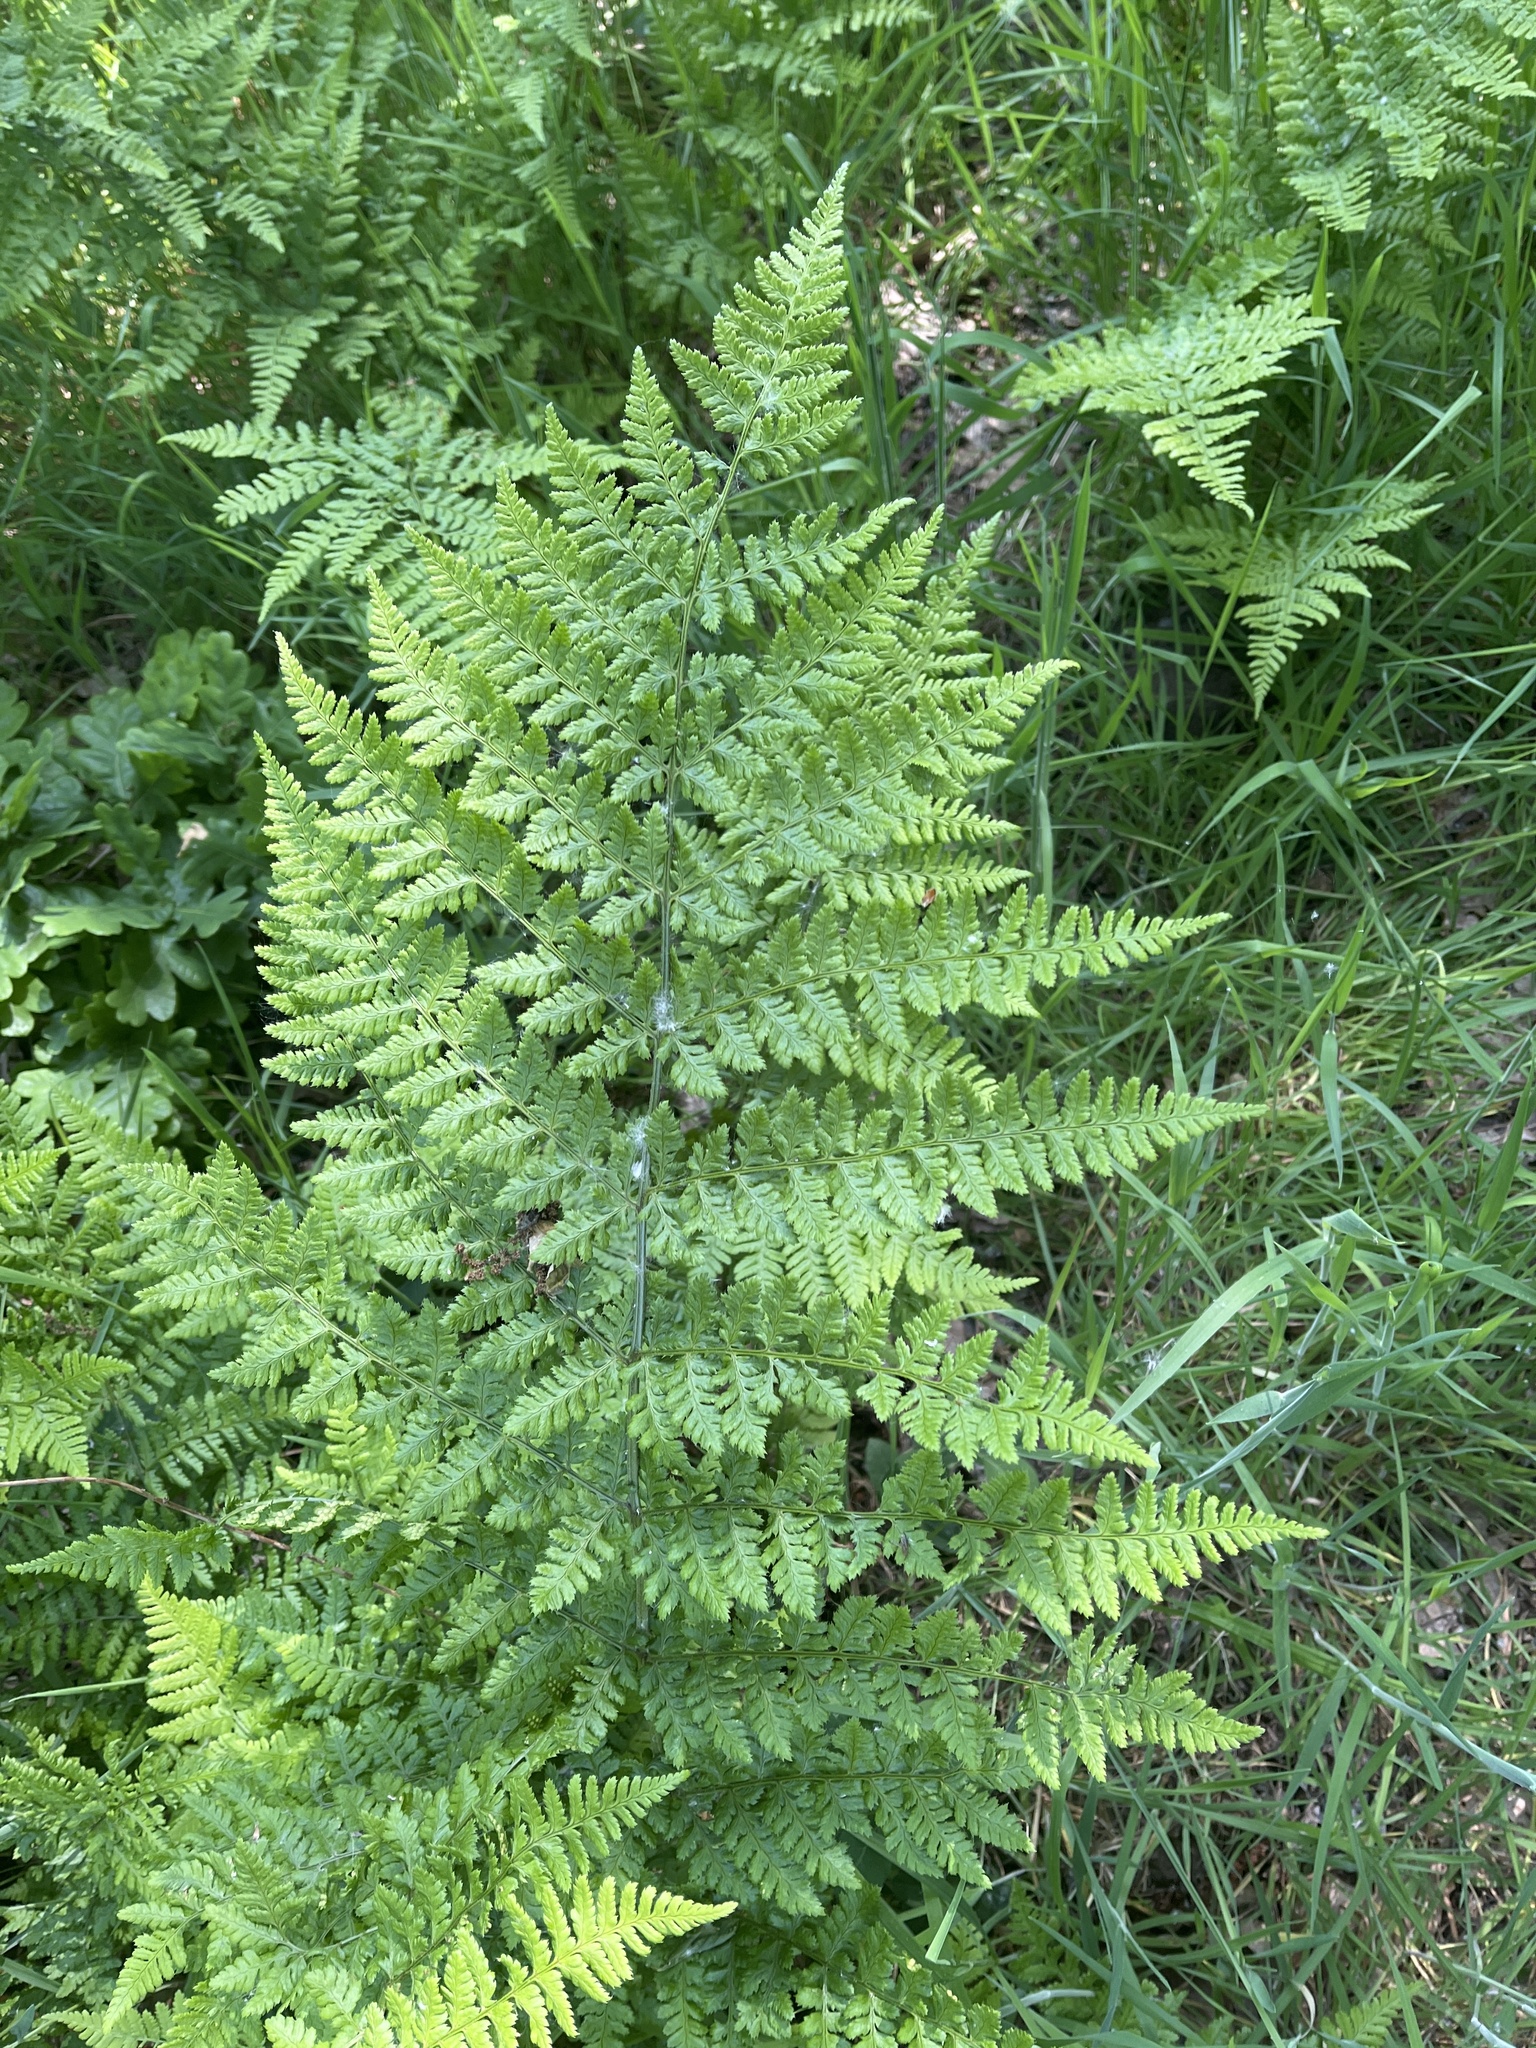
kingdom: Plantae
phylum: Tracheophyta
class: Polypodiopsida
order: Polypodiales
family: Dryopteridaceae
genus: Dryopteris
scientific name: Dryopteris dilatata
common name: Broad buckler-fern
